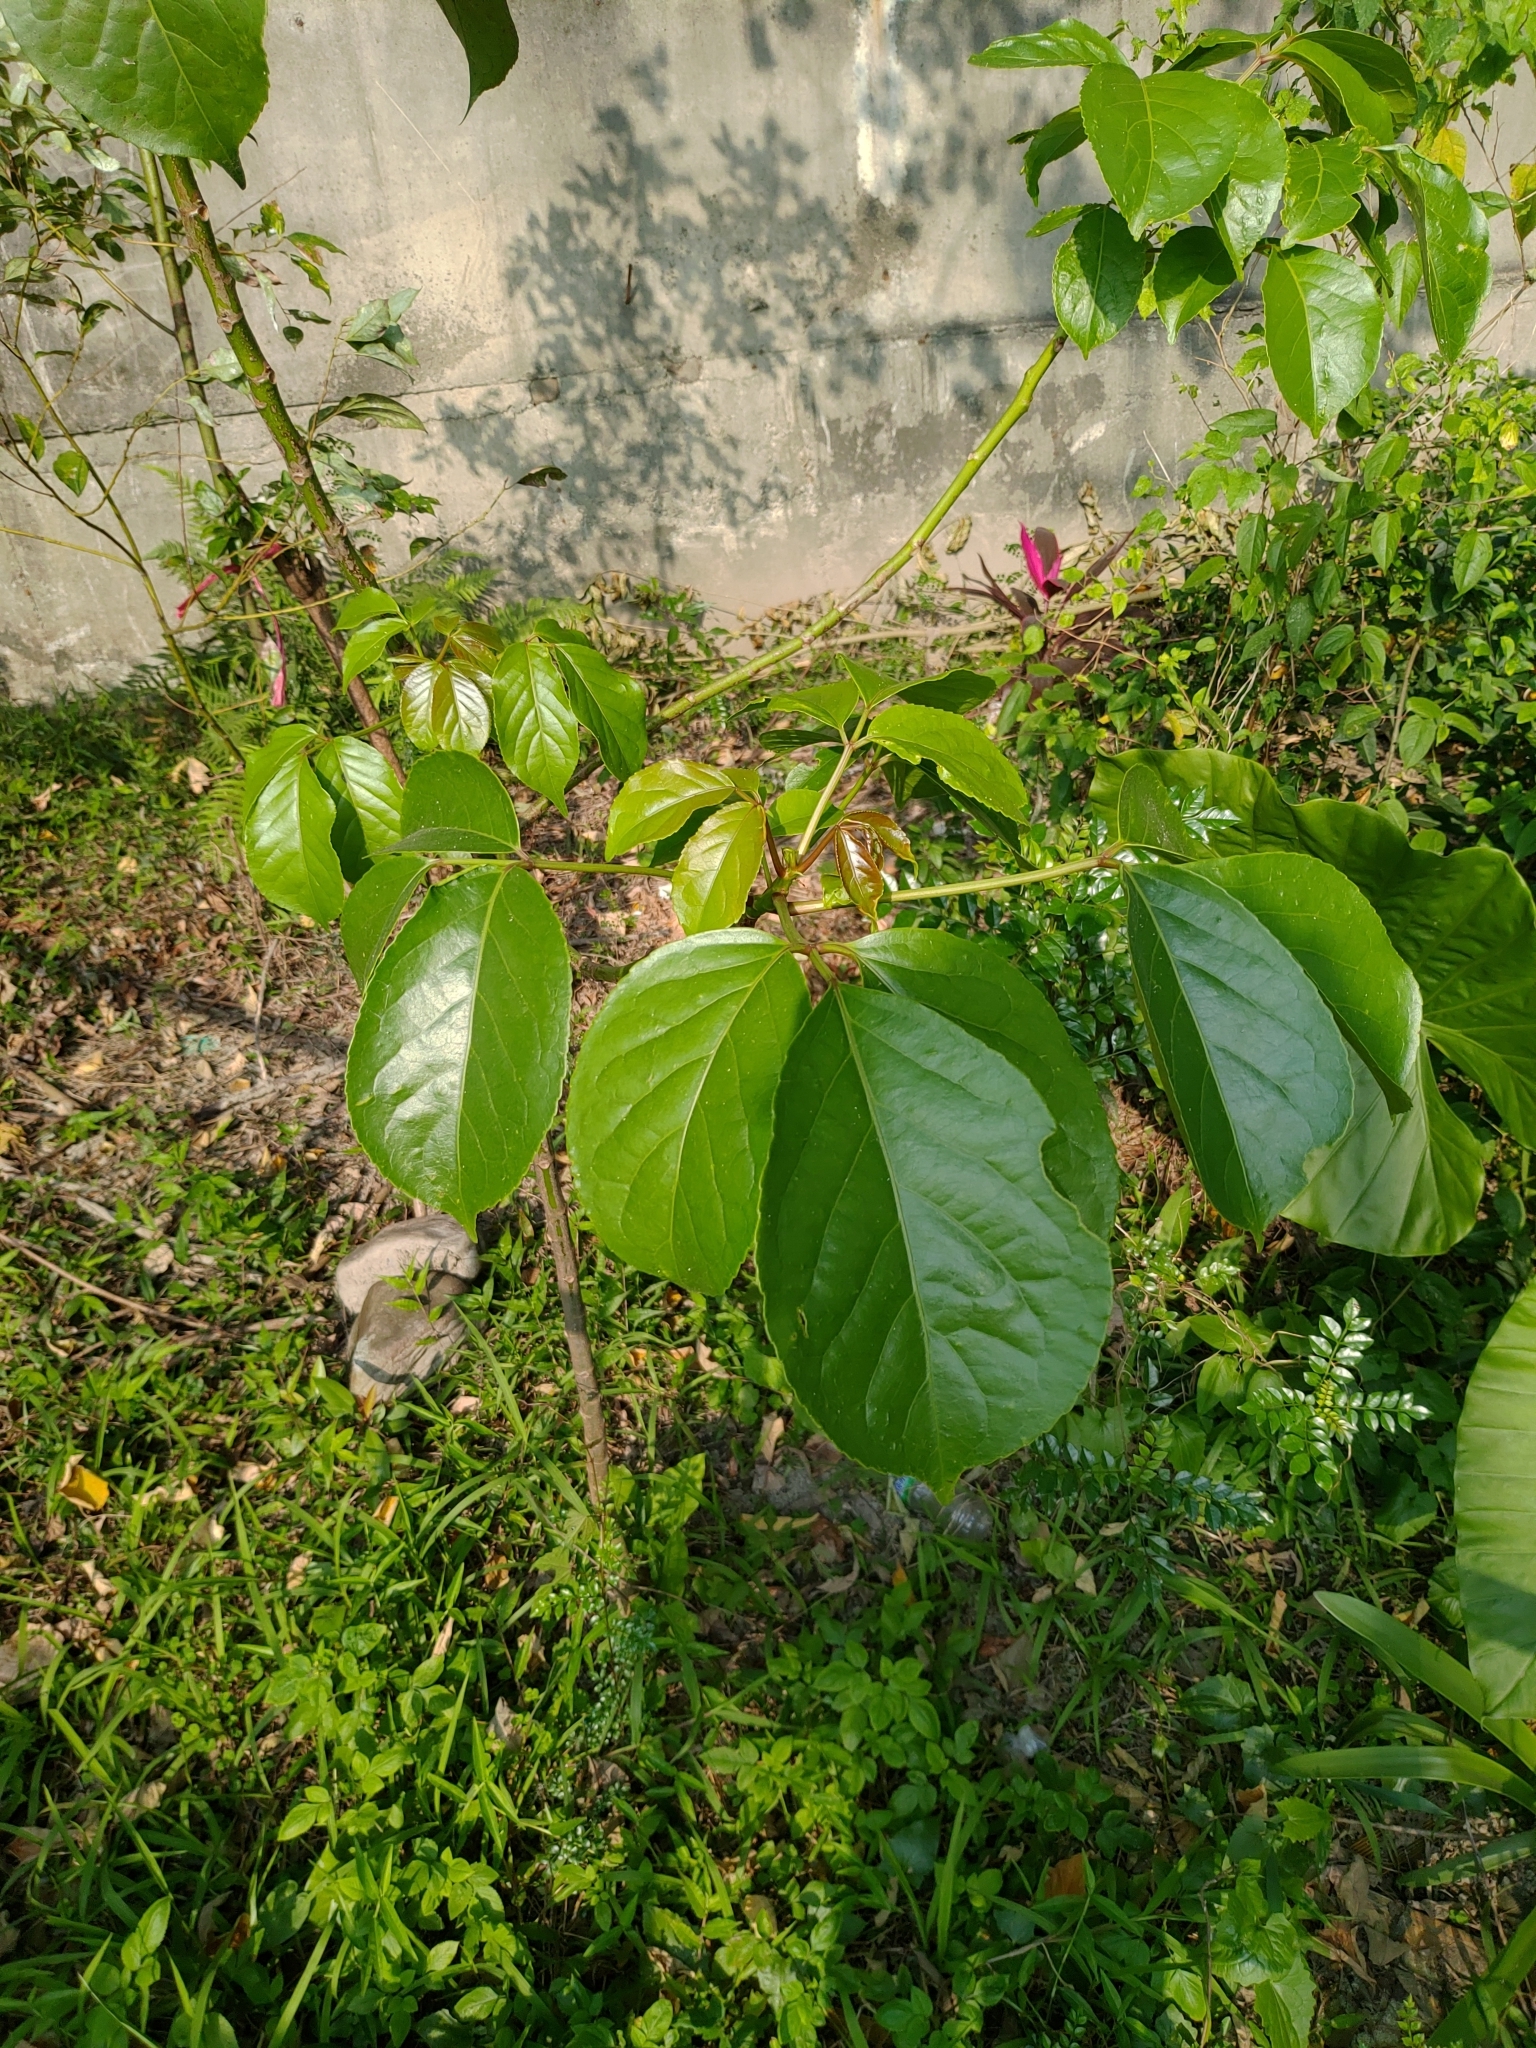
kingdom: Plantae
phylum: Tracheophyta
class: Magnoliopsida
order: Malpighiales
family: Phyllanthaceae
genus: Bischofia
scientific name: Bischofia javanica
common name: Javanese bishopwood
